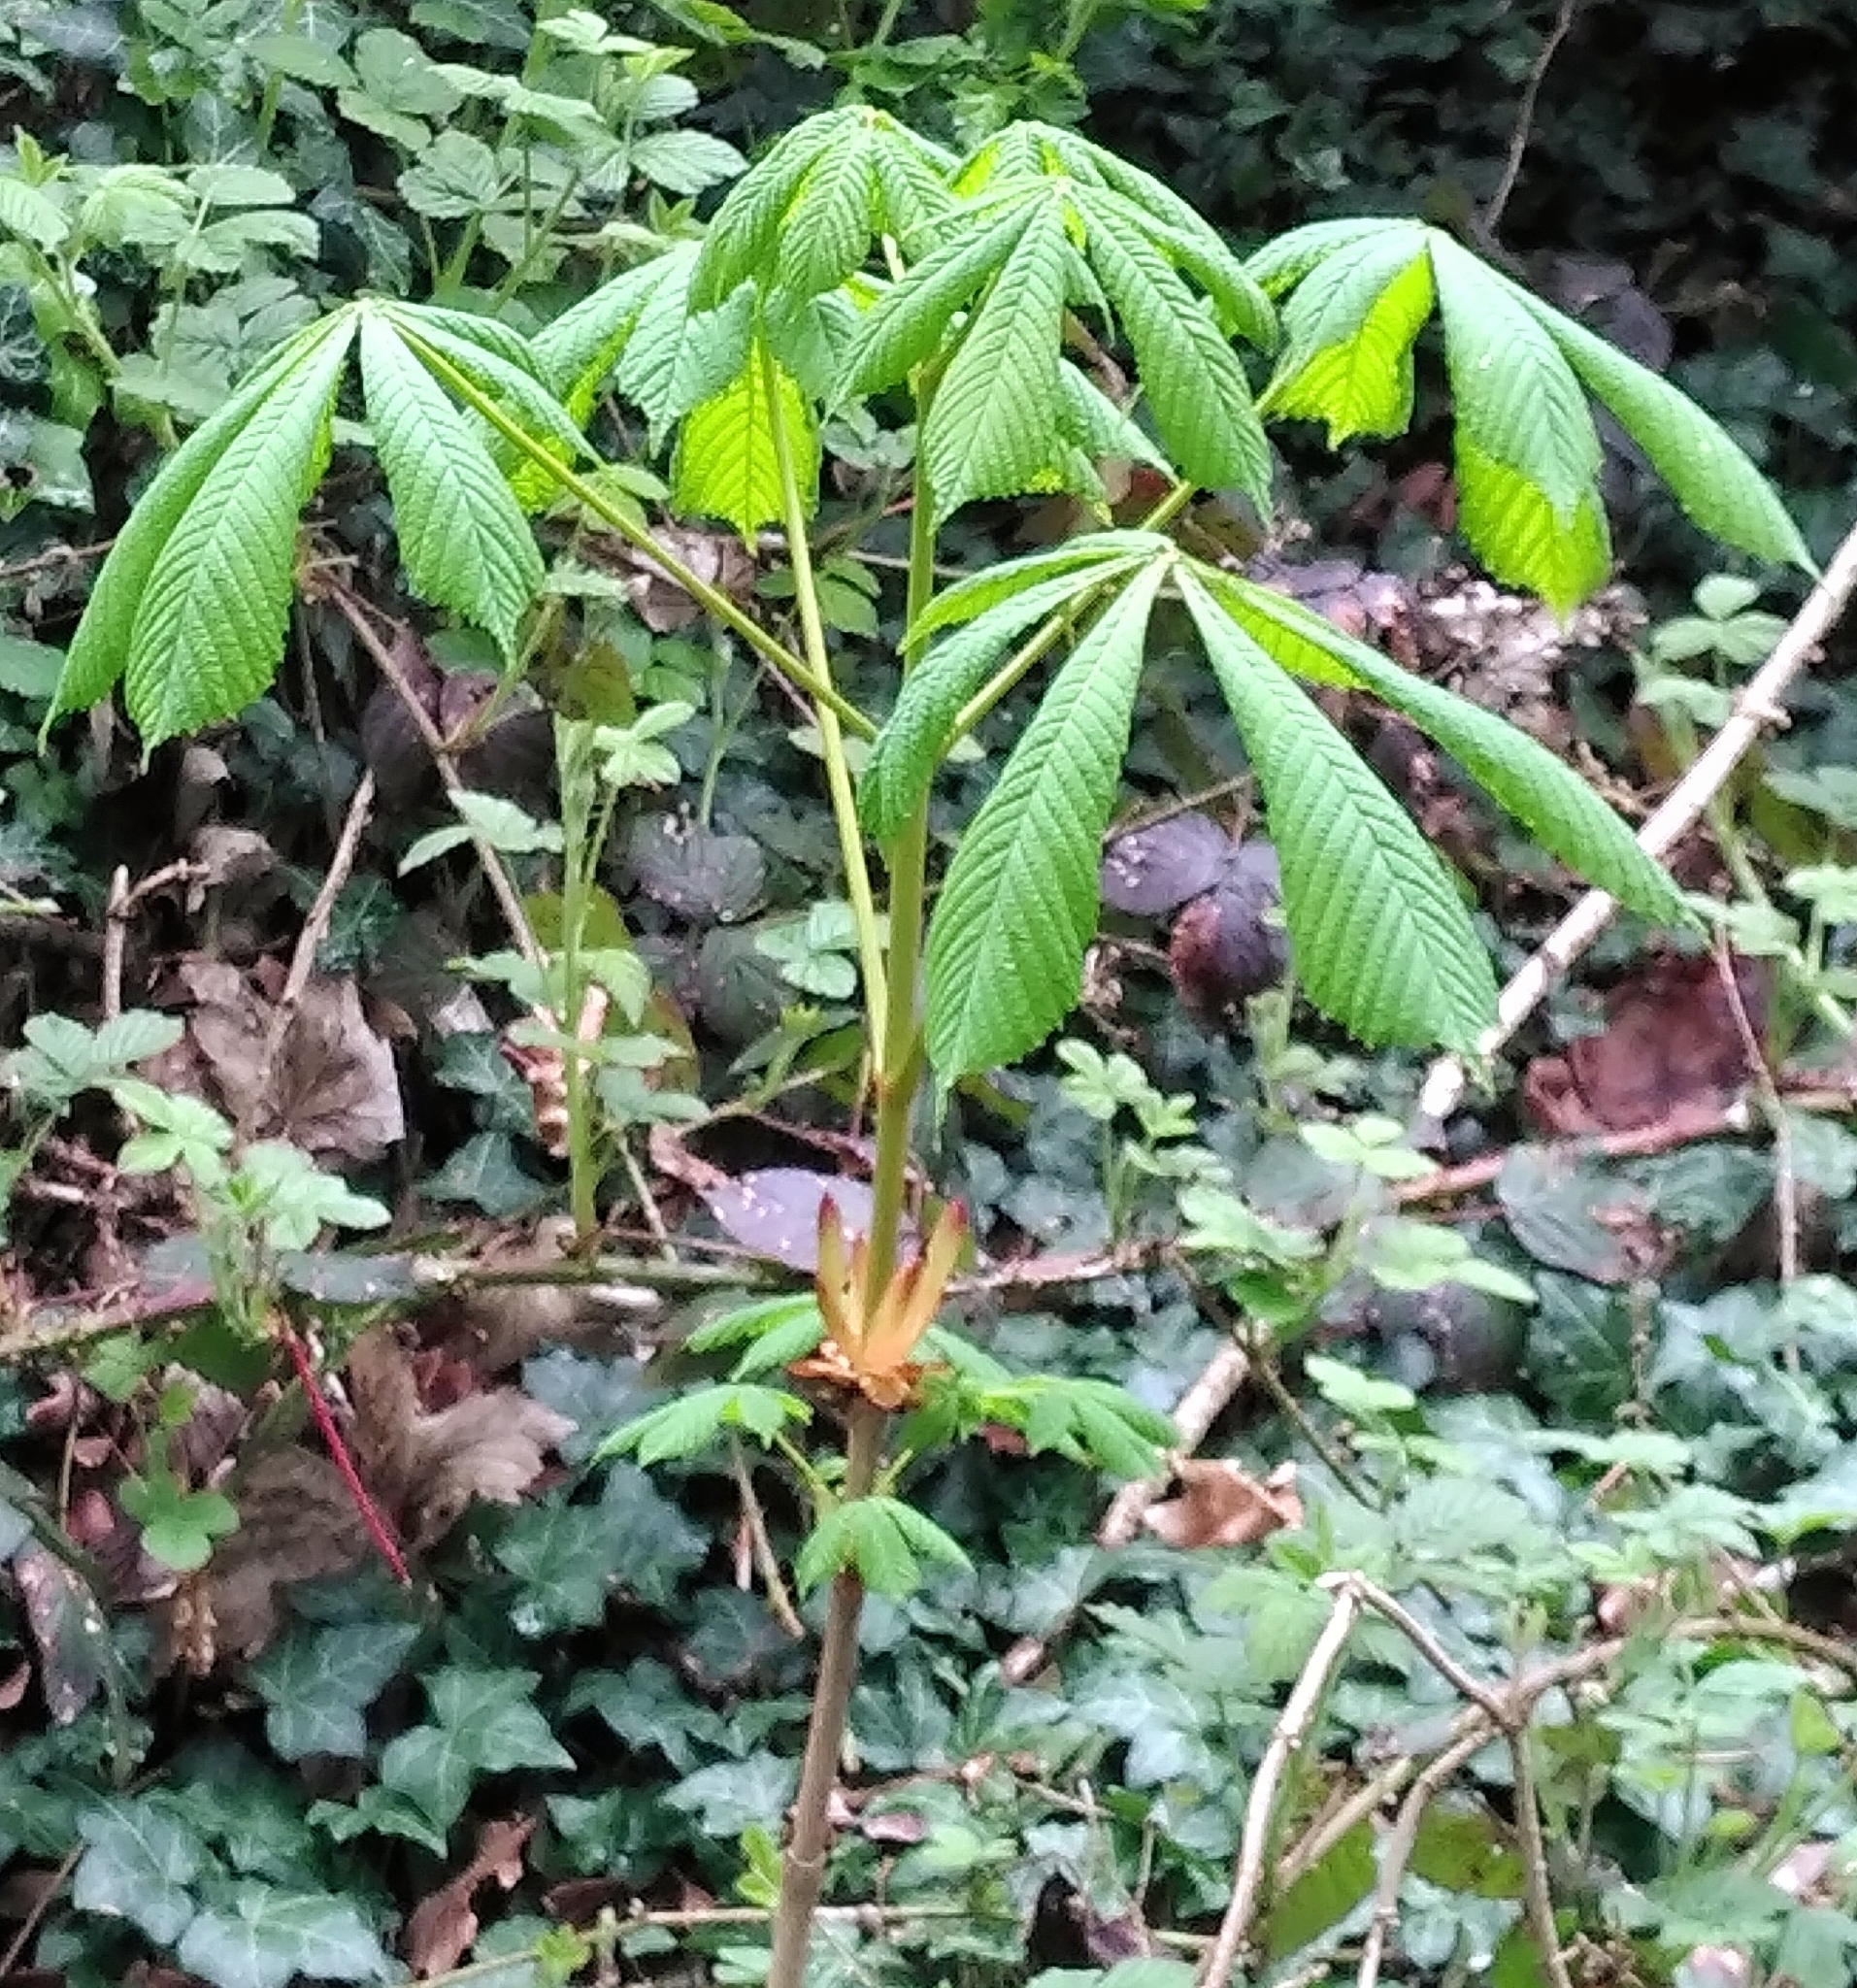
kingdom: Plantae
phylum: Tracheophyta
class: Magnoliopsida
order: Sapindales
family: Sapindaceae
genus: Aesculus
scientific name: Aesculus hippocastanum
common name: Horse-chestnut
